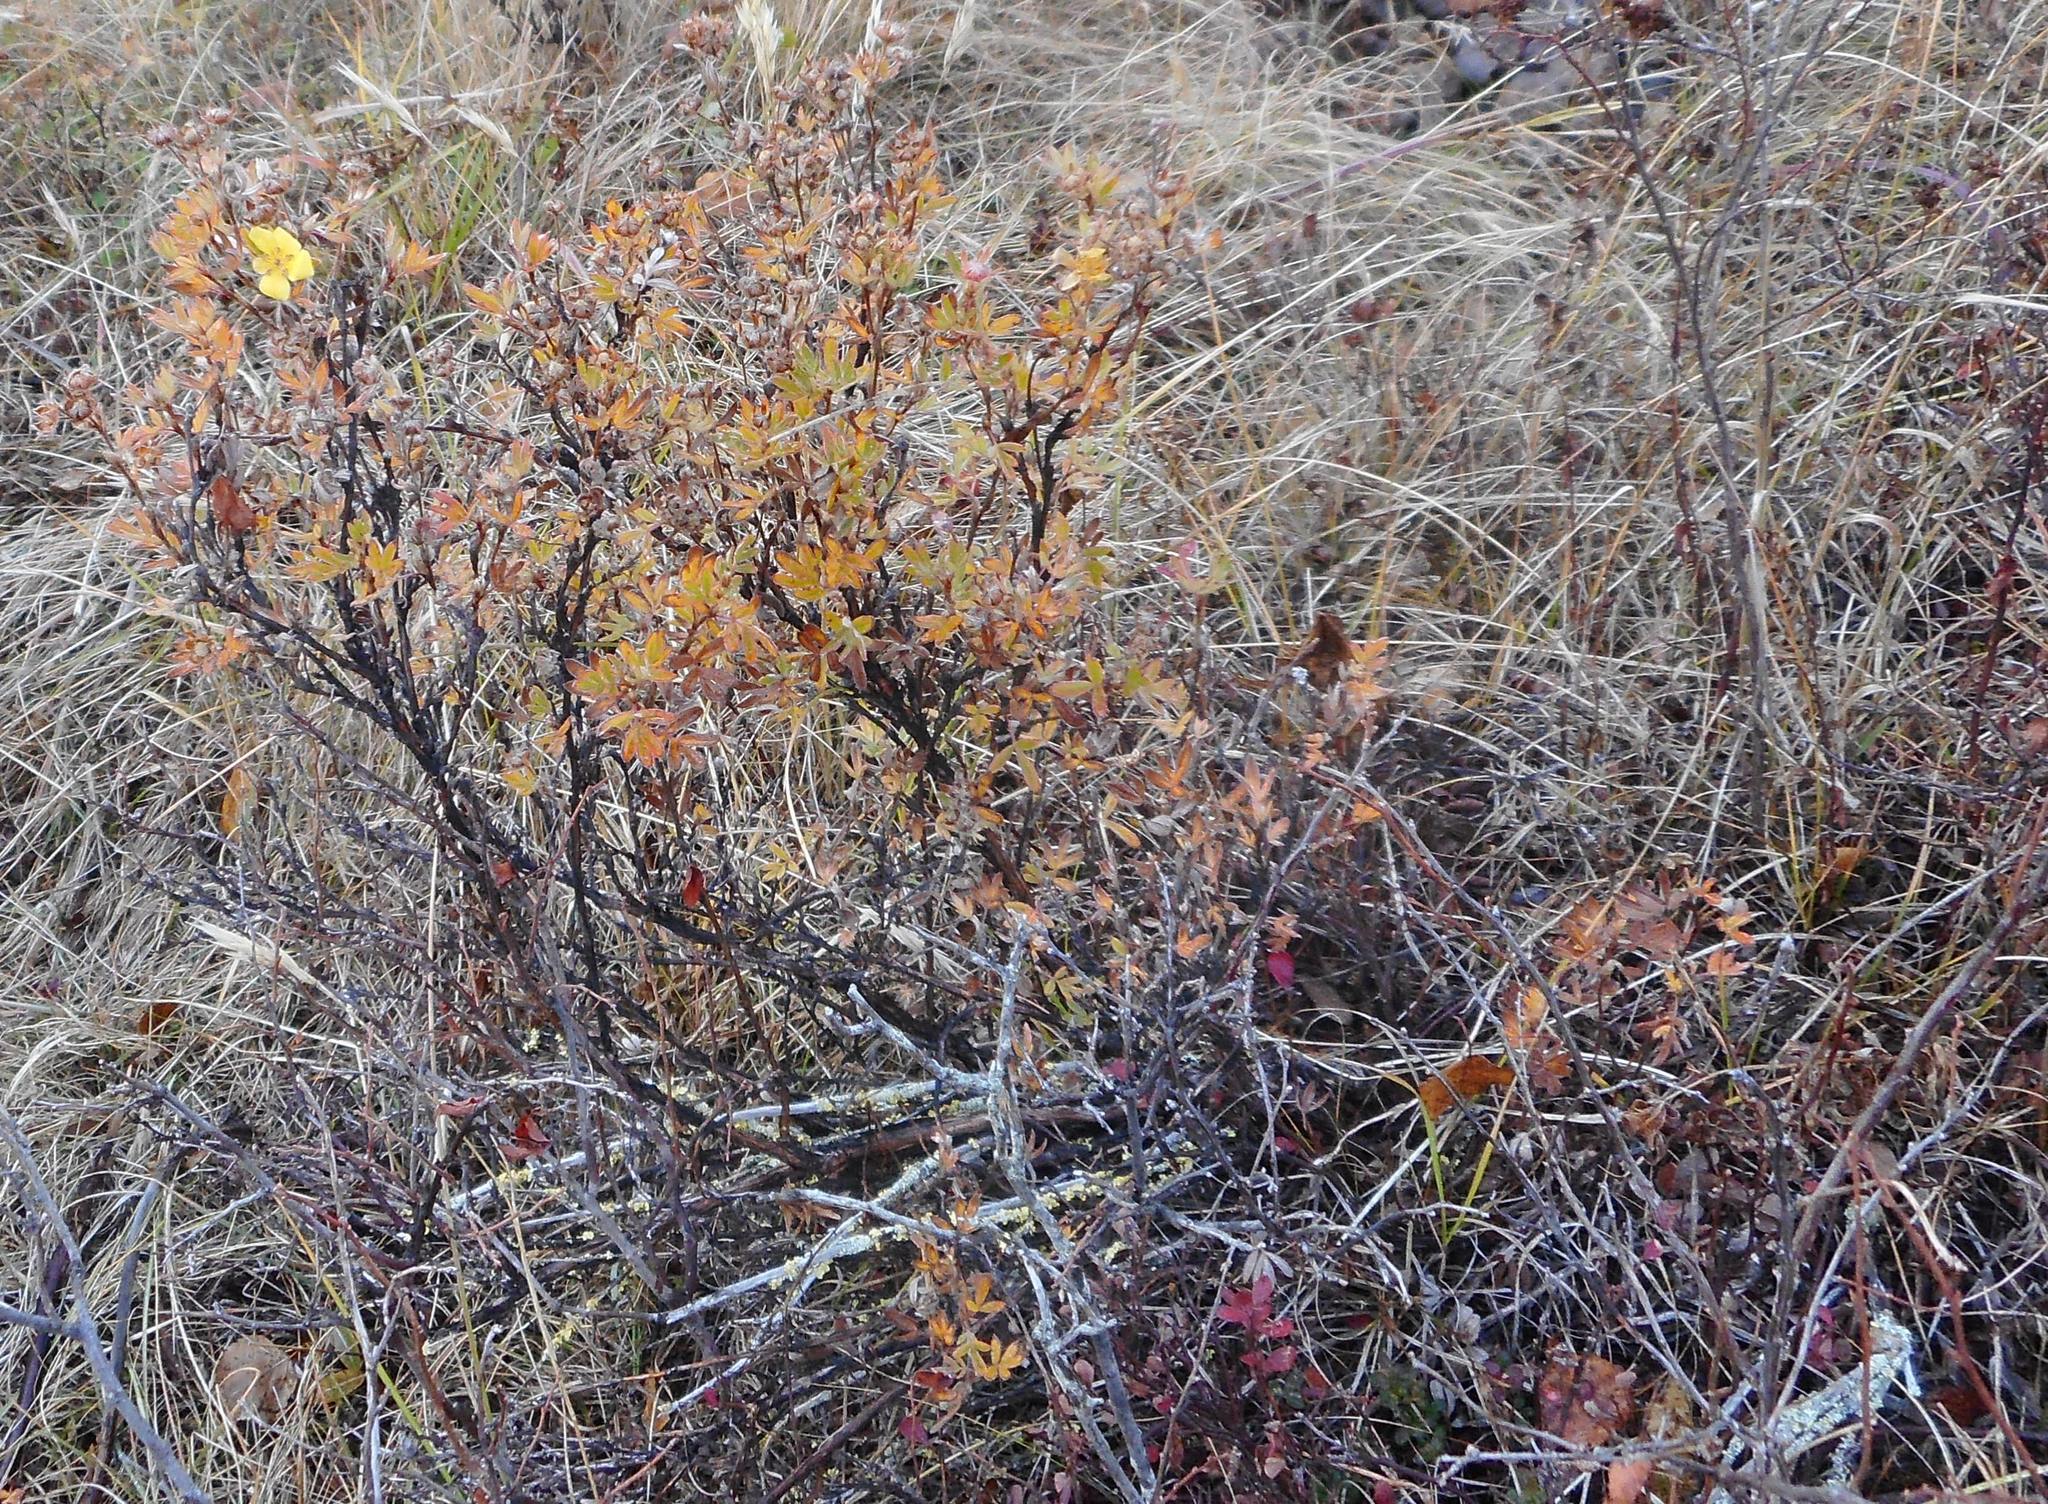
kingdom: Plantae
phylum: Tracheophyta
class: Magnoliopsida
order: Rosales
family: Rosaceae
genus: Dasiphora
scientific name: Dasiphora fruticosa
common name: Shrubby cinquefoil
